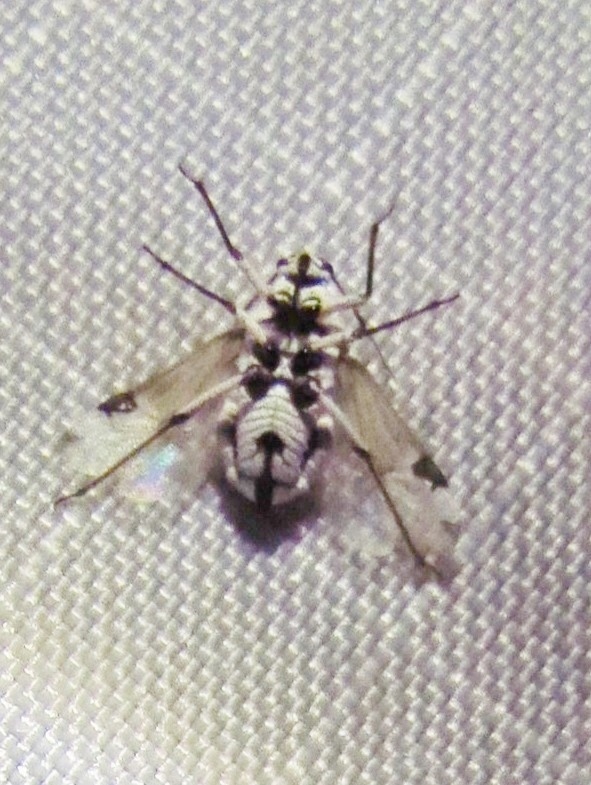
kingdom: Animalia
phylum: Arthropoda
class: Insecta
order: Hemiptera
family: Miridae
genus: Clivinema
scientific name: Clivinema villosa
